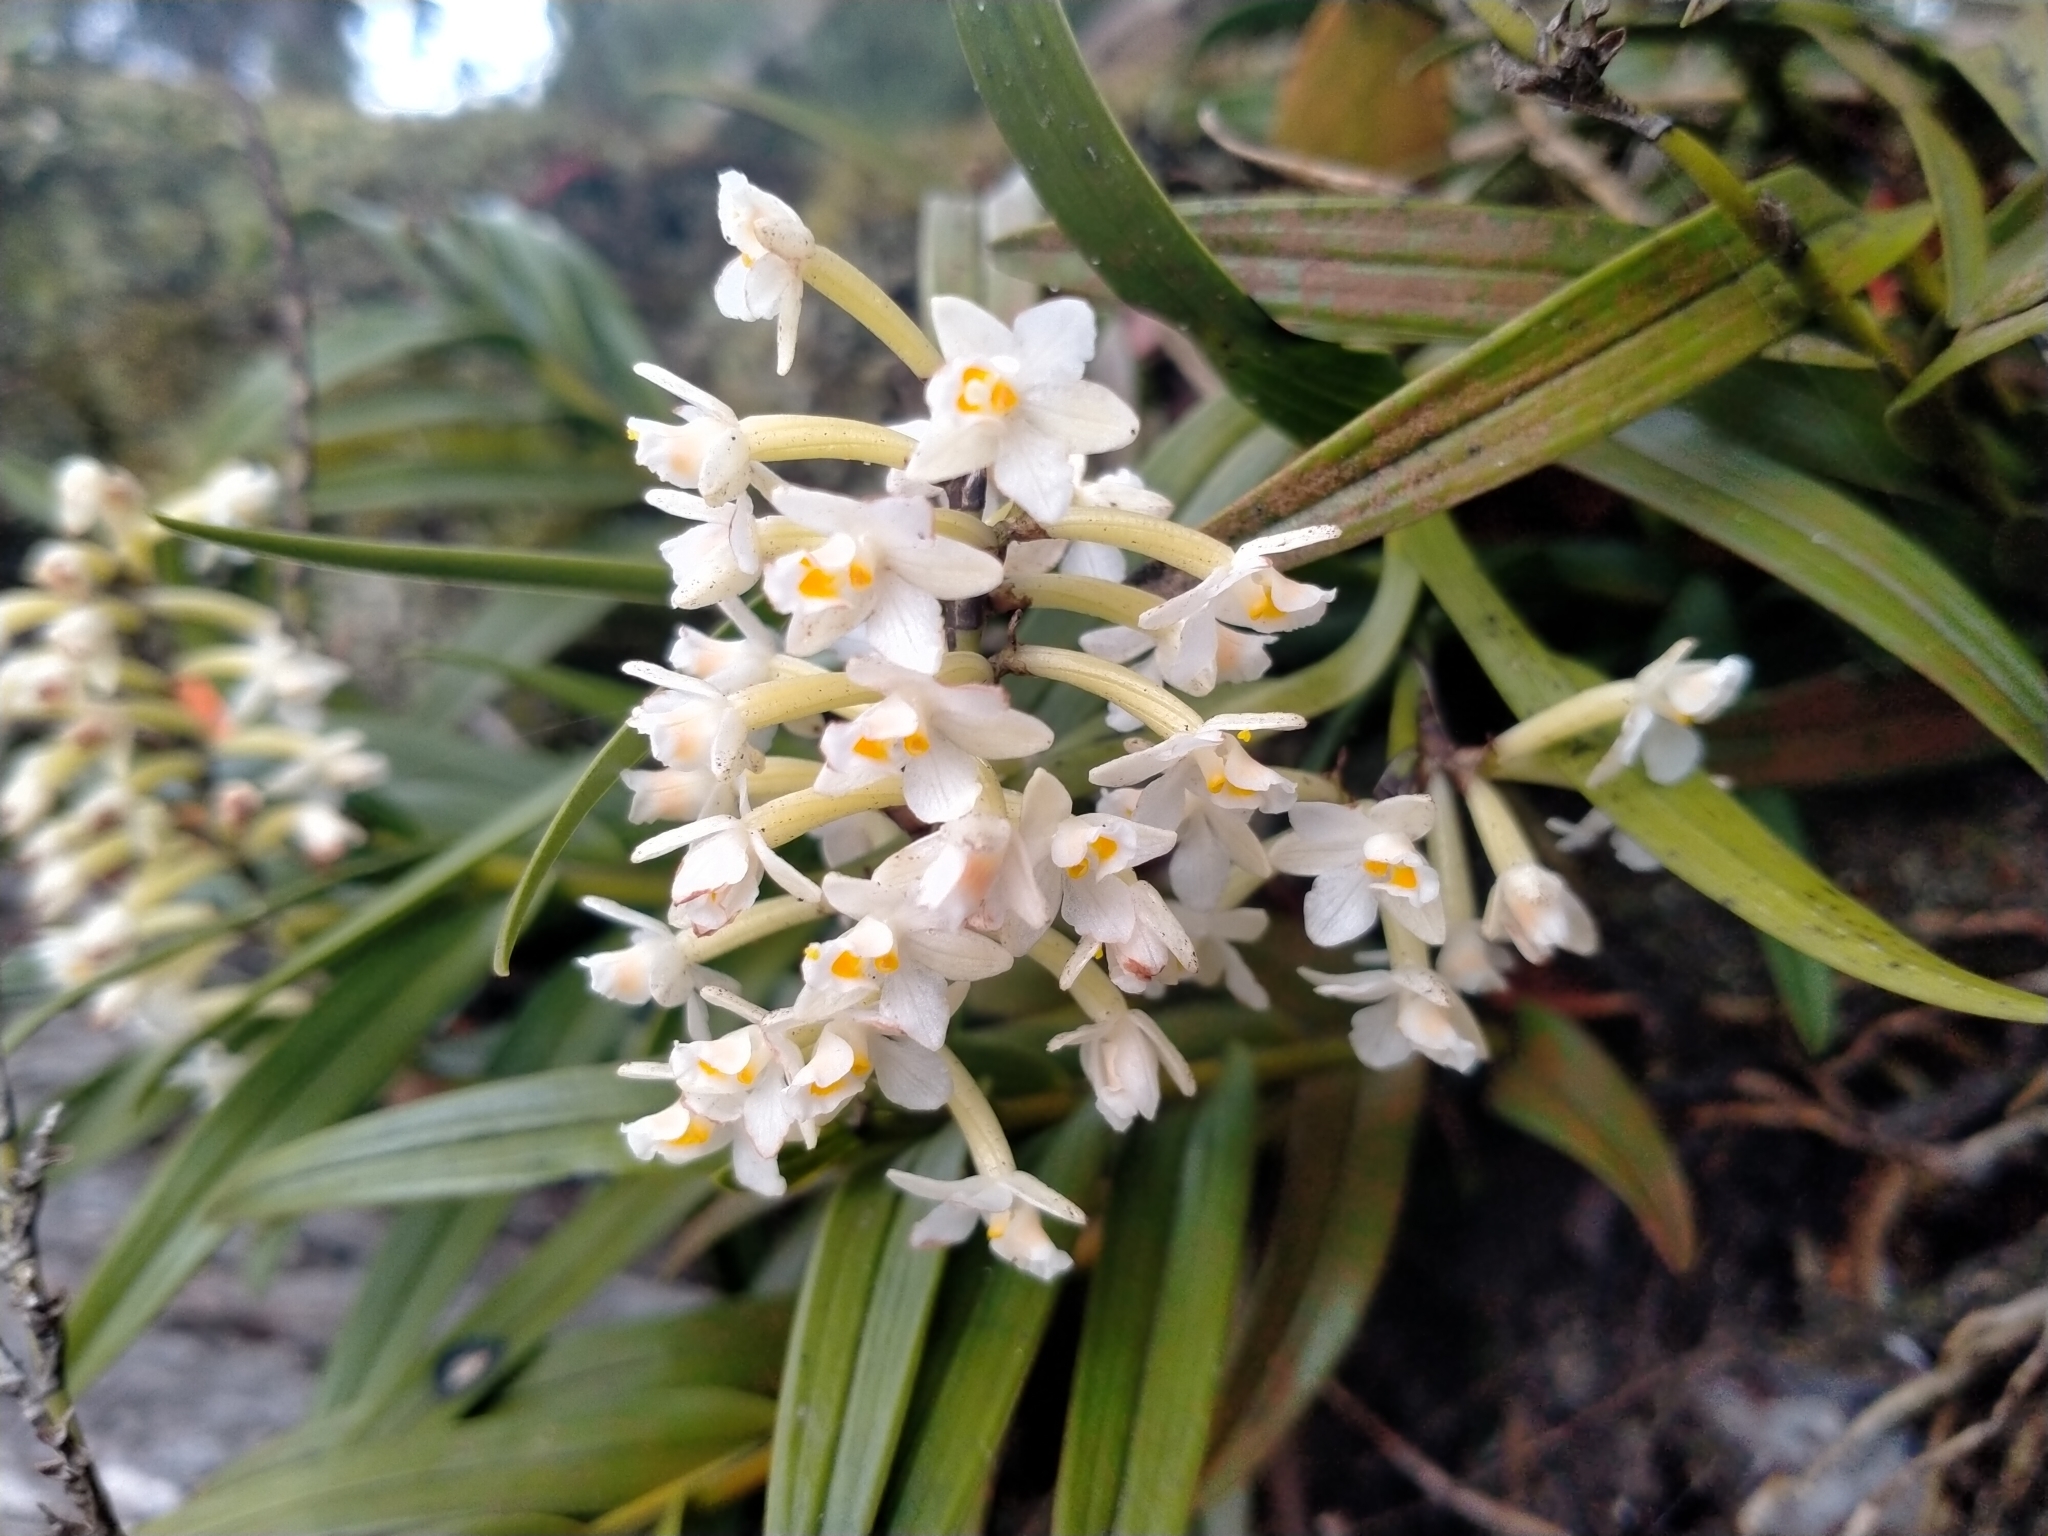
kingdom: Plantae
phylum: Tracheophyta
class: Liliopsida
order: Asparagales
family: Orchidaceae
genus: Earina
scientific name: Earina autumnalis
